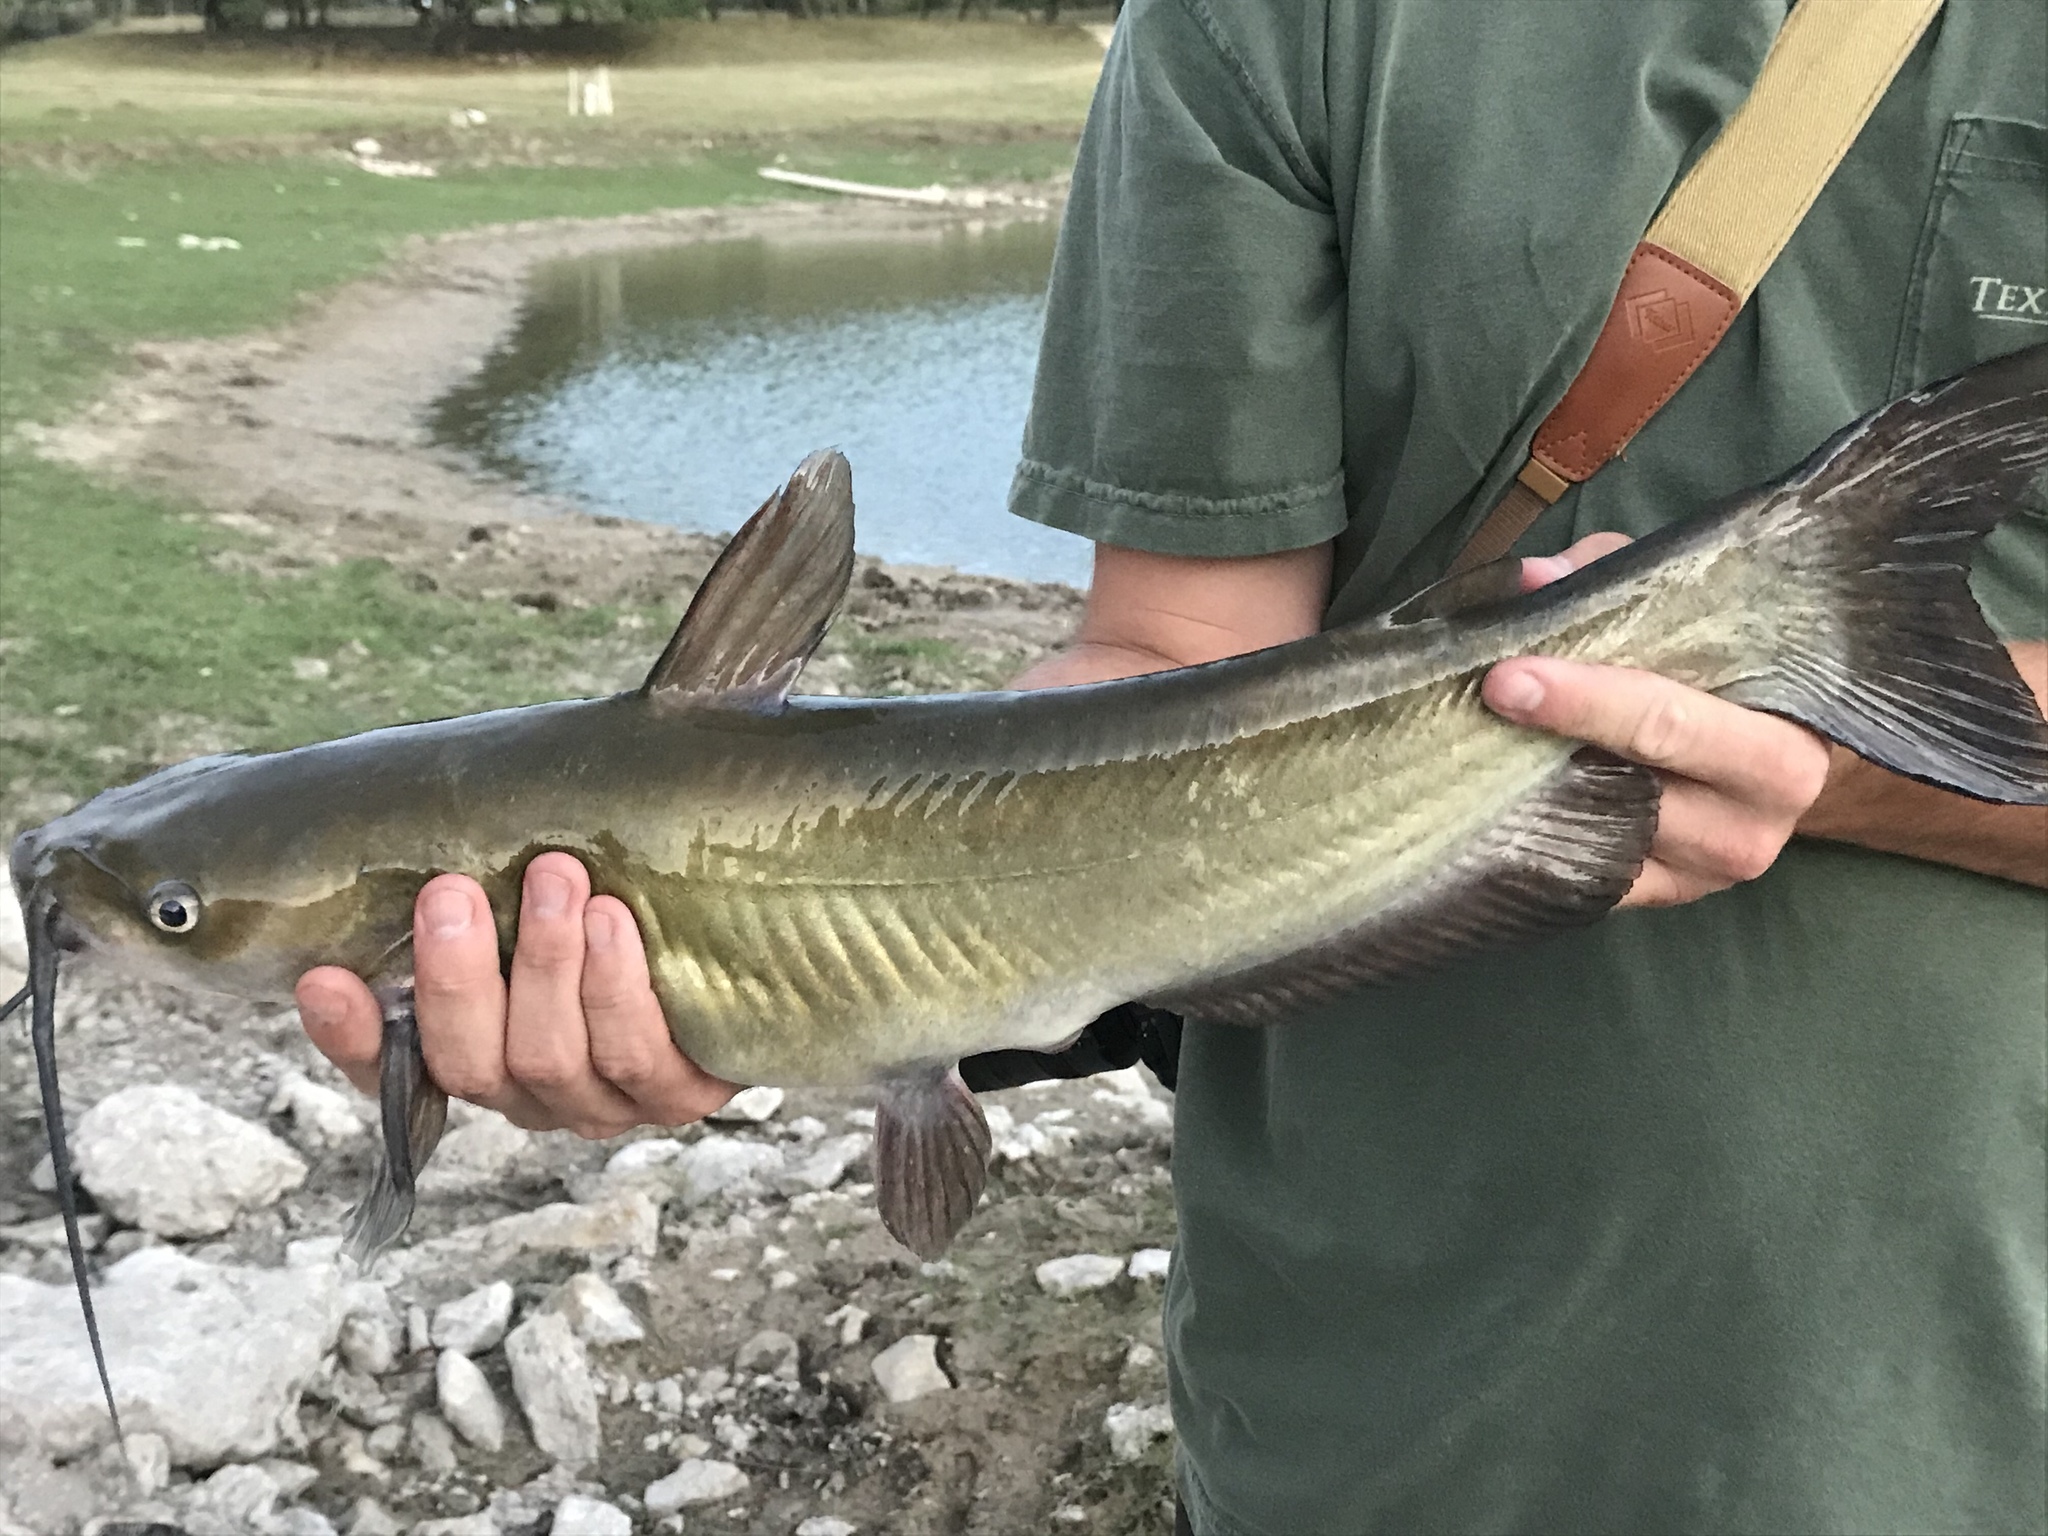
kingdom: Animalia
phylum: Chordata
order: Siluriformes
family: Ictaluridae
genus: Ictalurus
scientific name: Ictalurus punctatus
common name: Channel catfish
